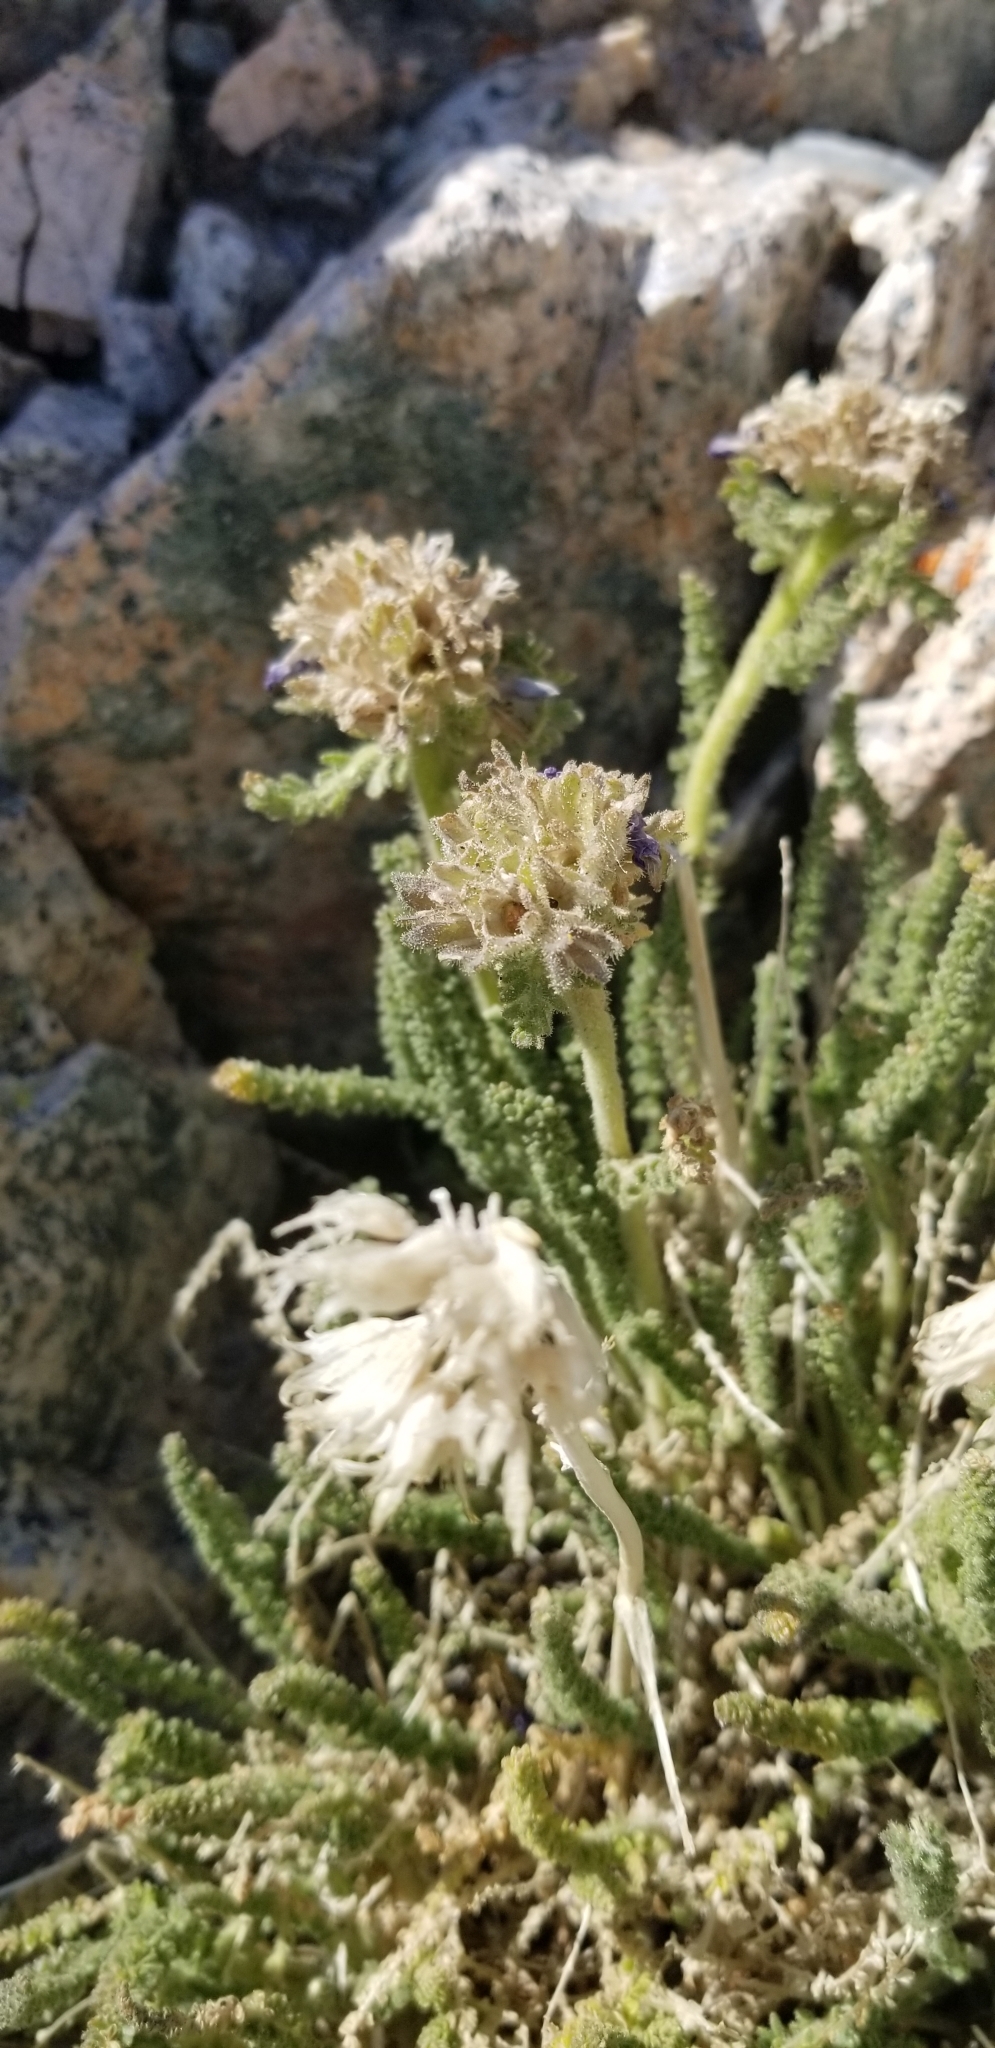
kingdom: Plantae
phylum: Tracheophyta
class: Magnoliopsida
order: Ericales
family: Polemoniaceae
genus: Polemonium
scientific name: Polemonium eximium
